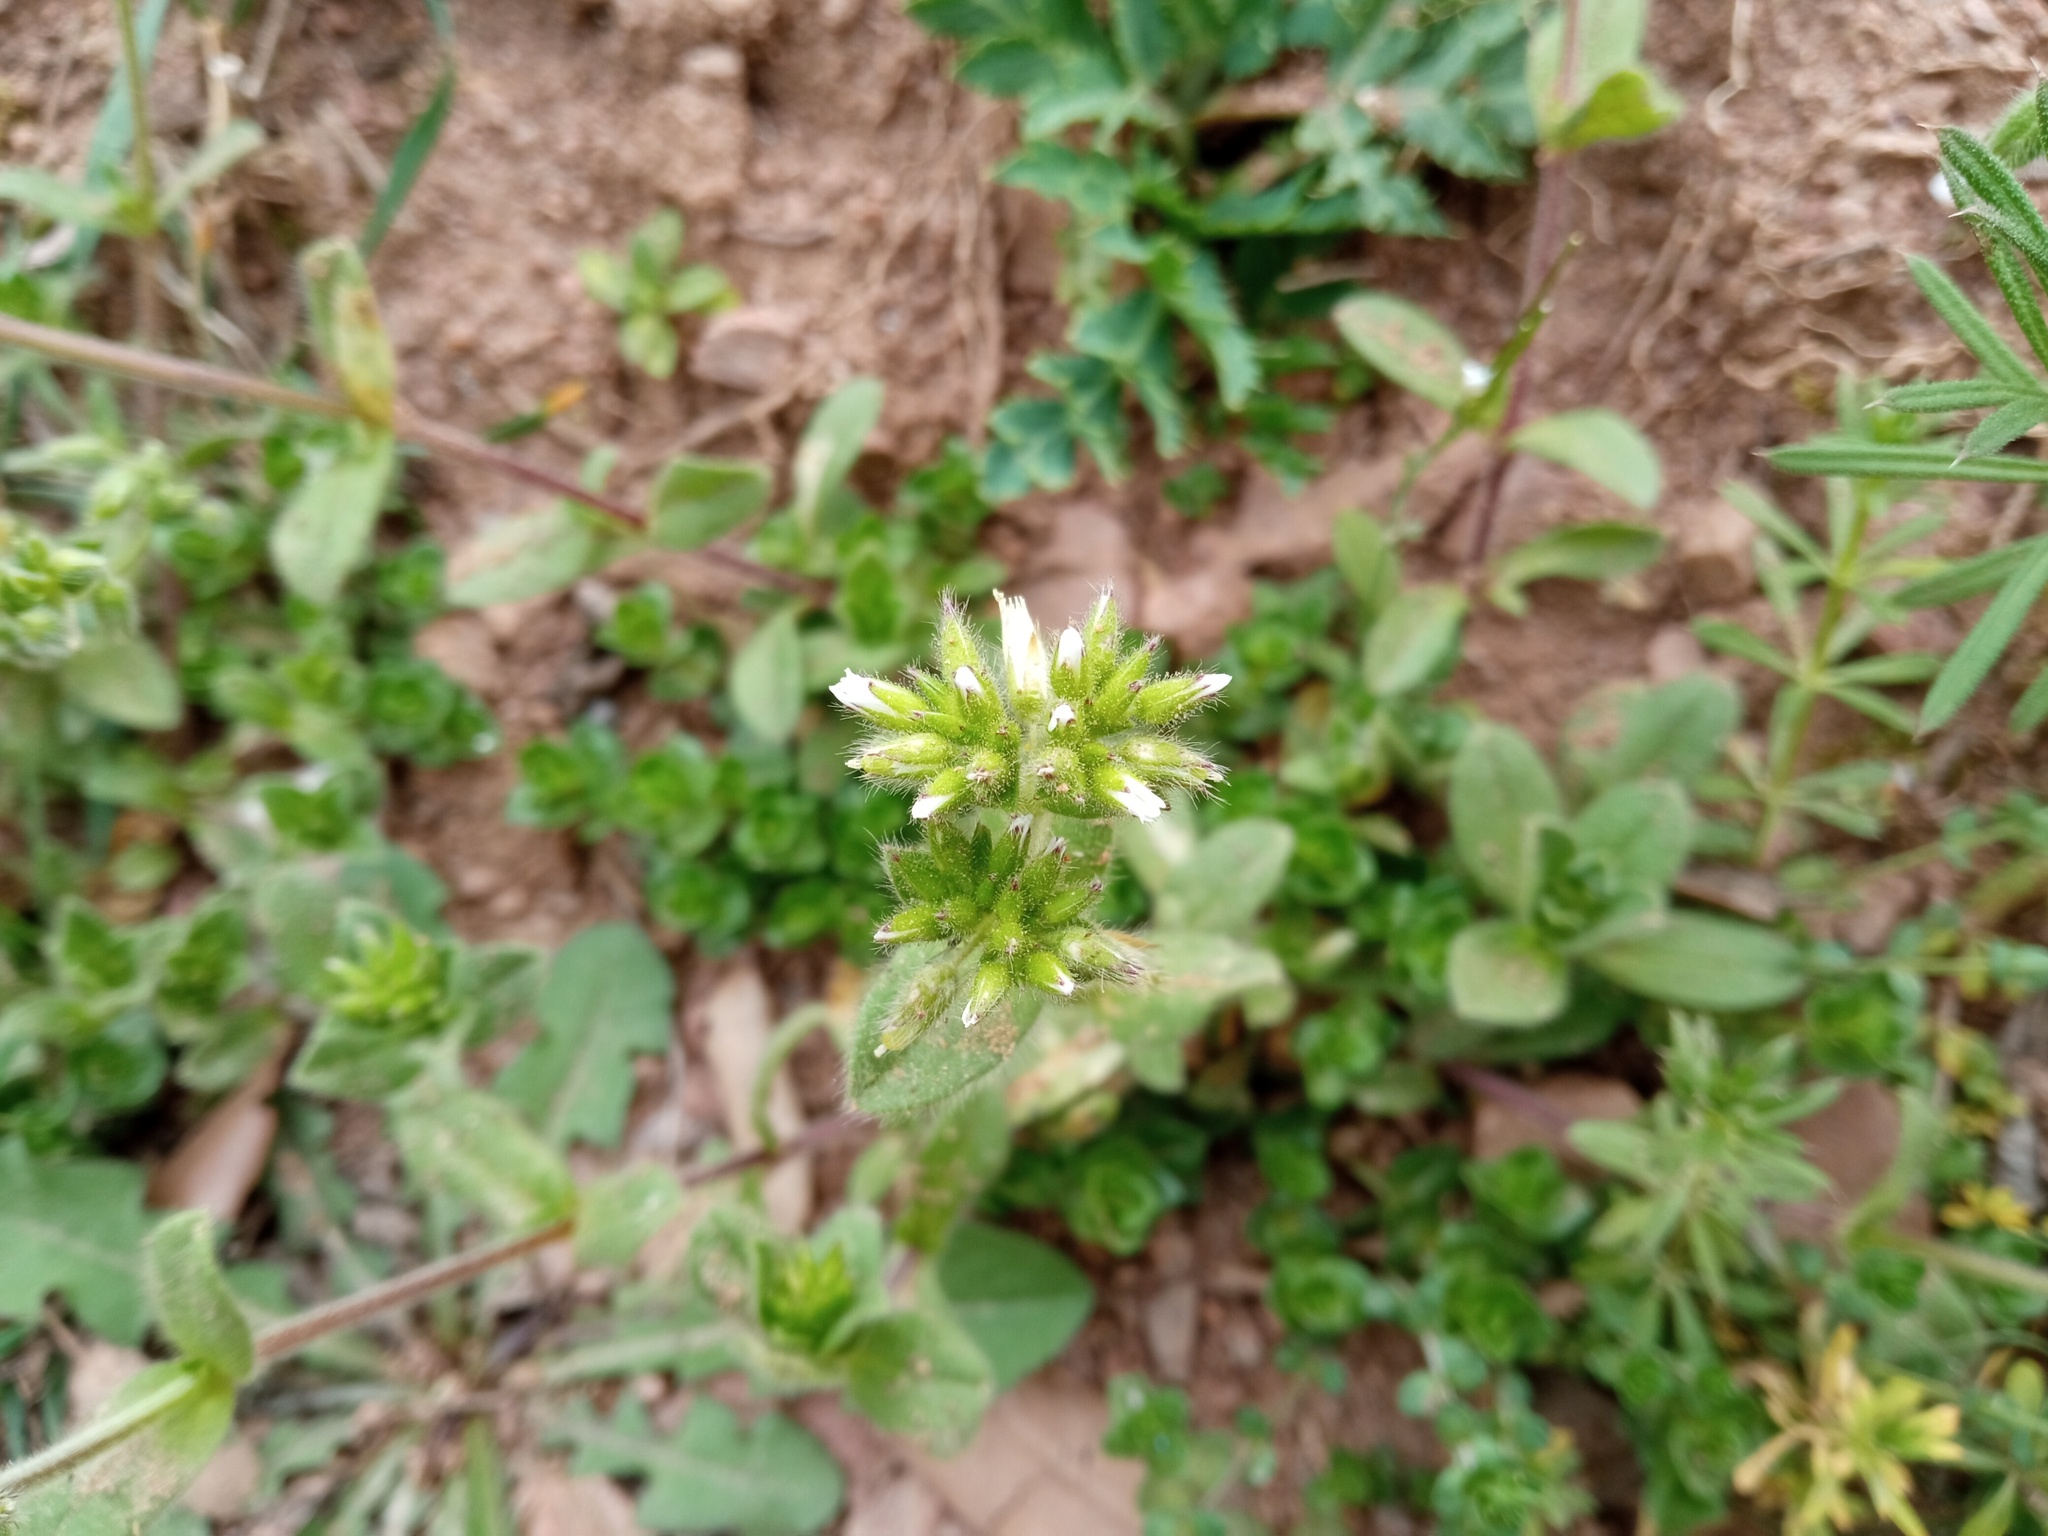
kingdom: Plantae
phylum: Tracheophyta
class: Magnoliopsida
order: Caryophyllales
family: Caryophyllaceae
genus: Cerastium
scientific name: Cerastium glomeratum
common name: Sticky chickweed
